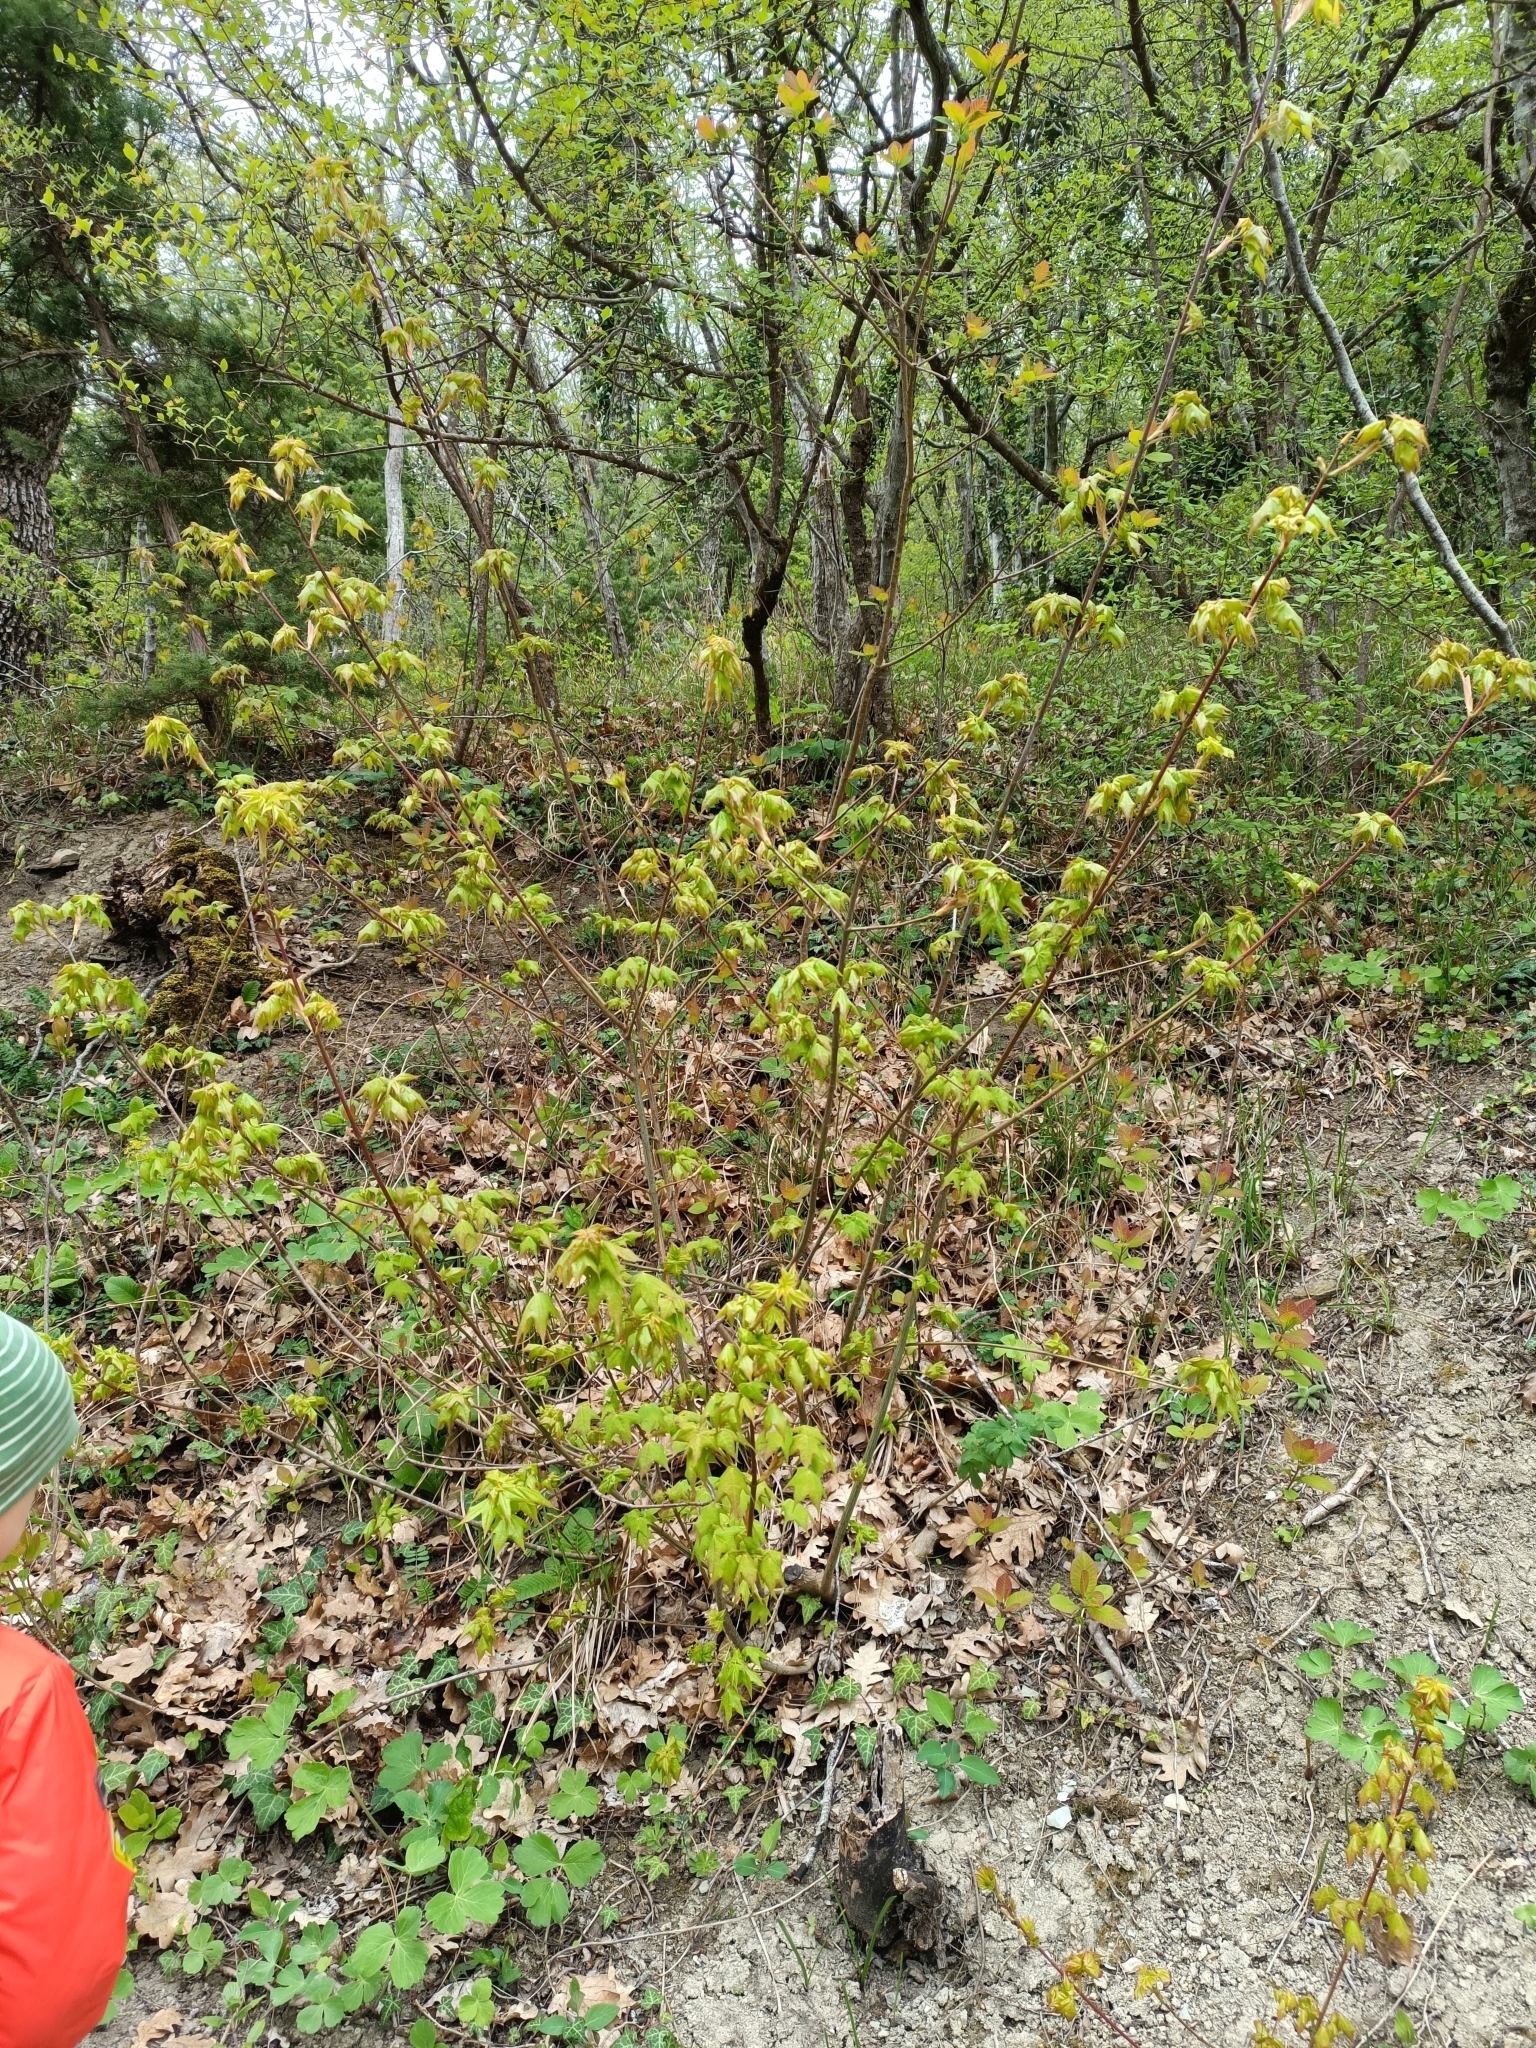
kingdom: Plantae
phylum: Tracheophyta
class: Magnoliopsida
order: Sapindales
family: Sapindaceae
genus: Acer
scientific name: Acer cappadocicum
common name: Cappadocian maple
